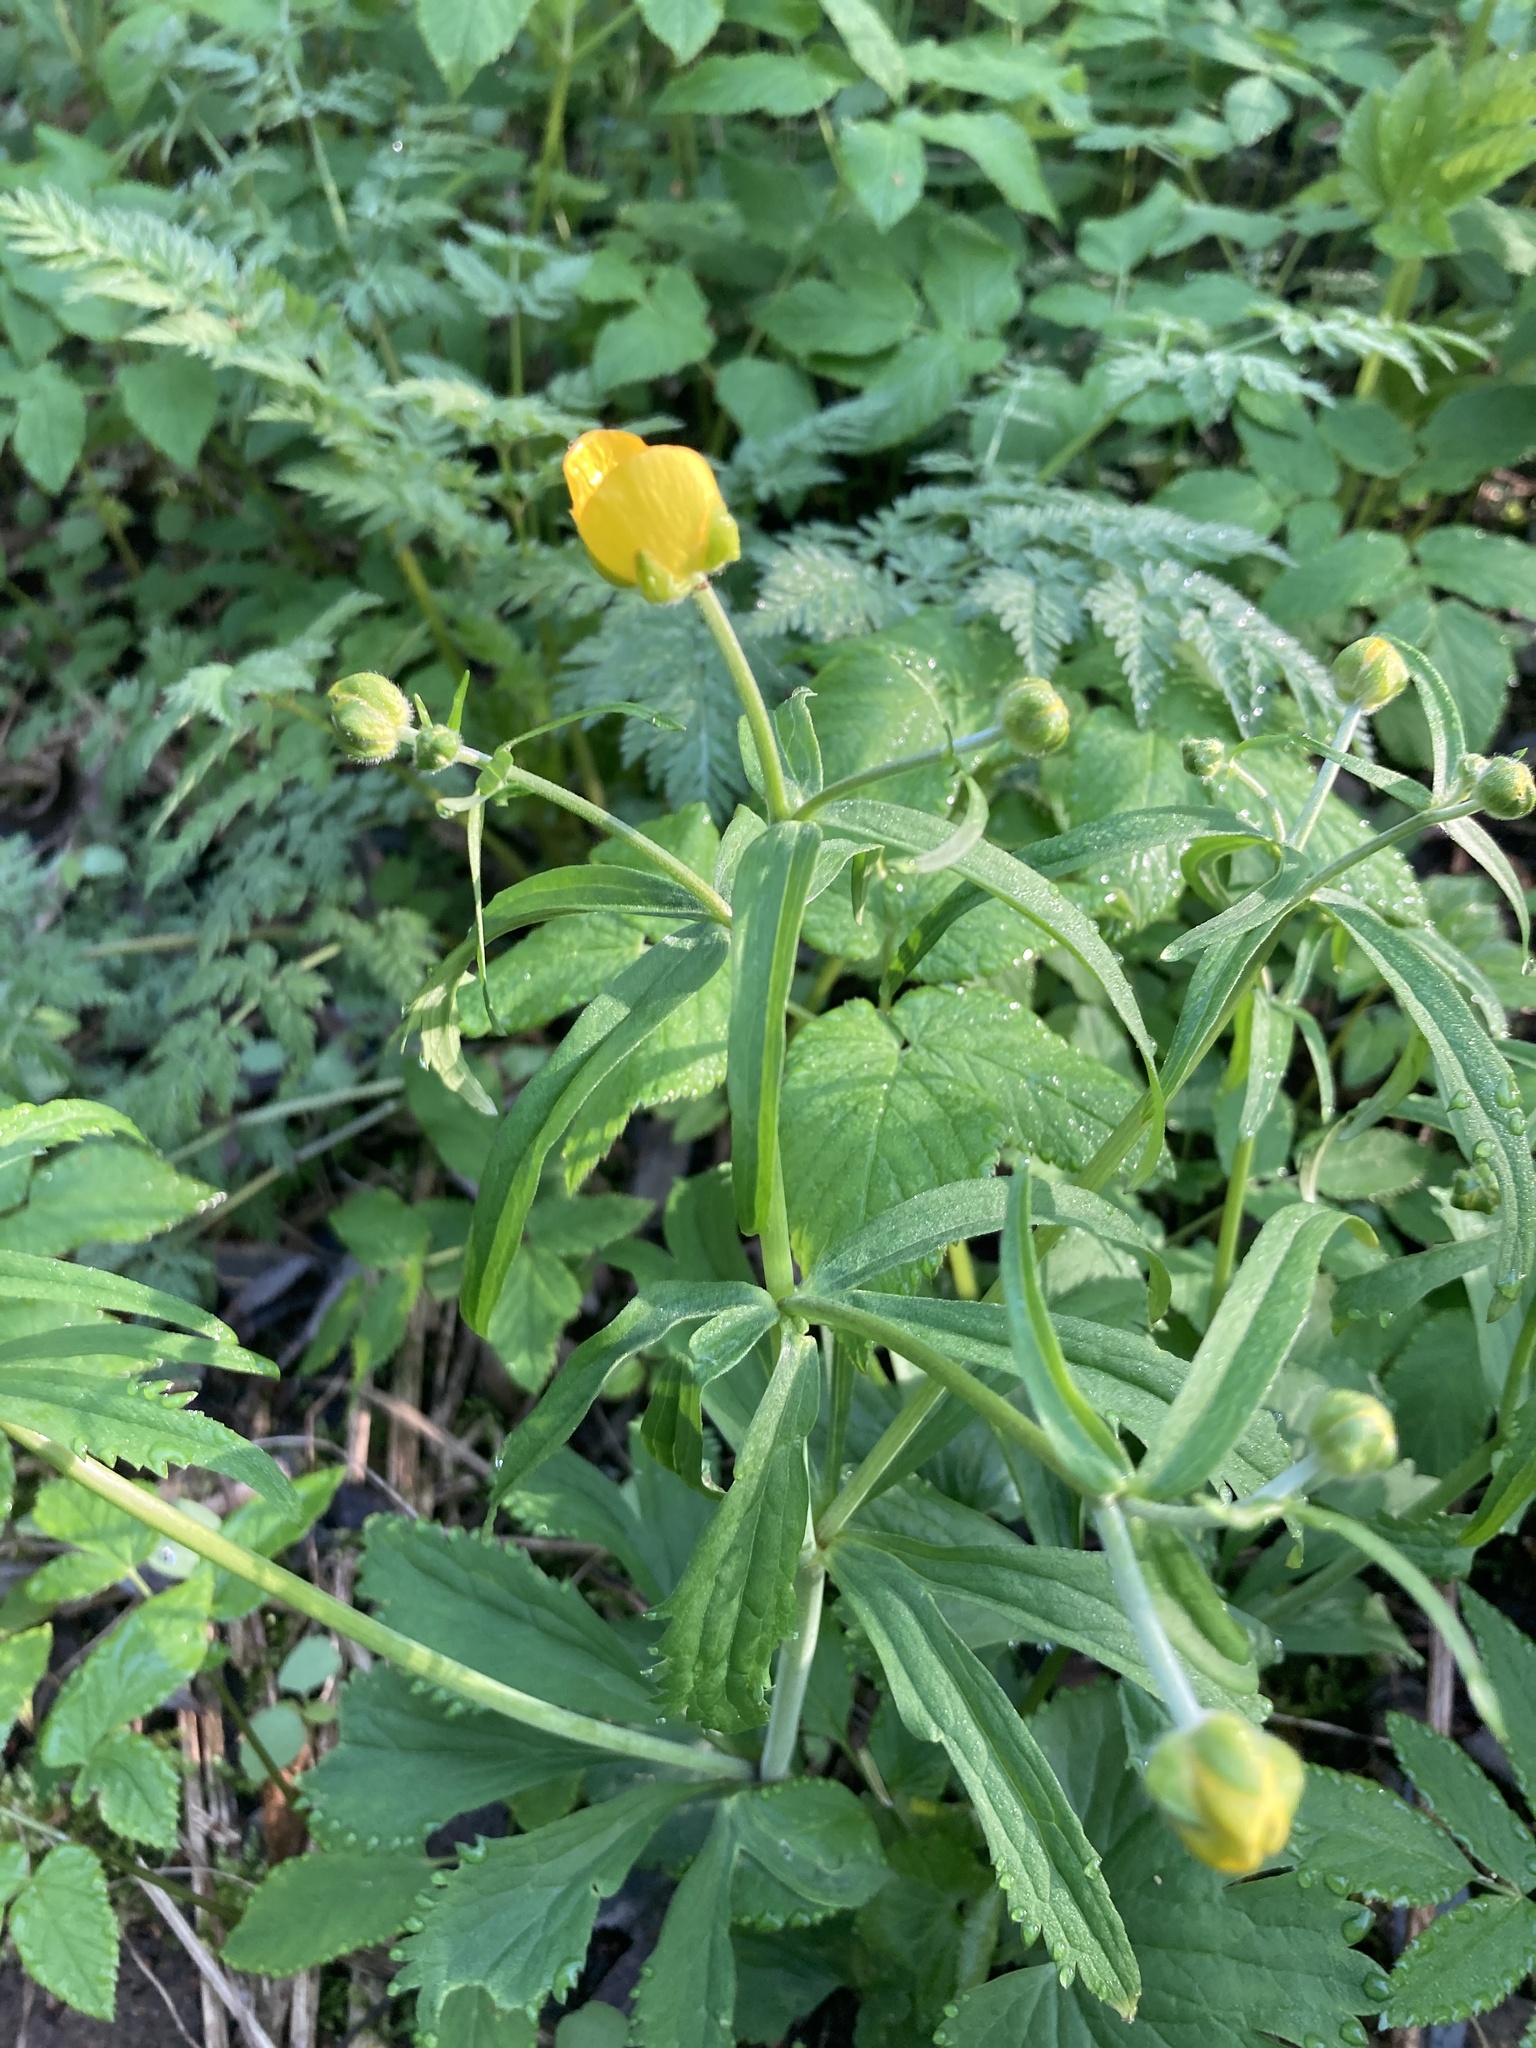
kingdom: Plantae
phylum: Tracheophyta
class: Magnoliopsida
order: Ranunculales
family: Ranunculaceae
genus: Ranunculus
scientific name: Ranunculus cassubicus
